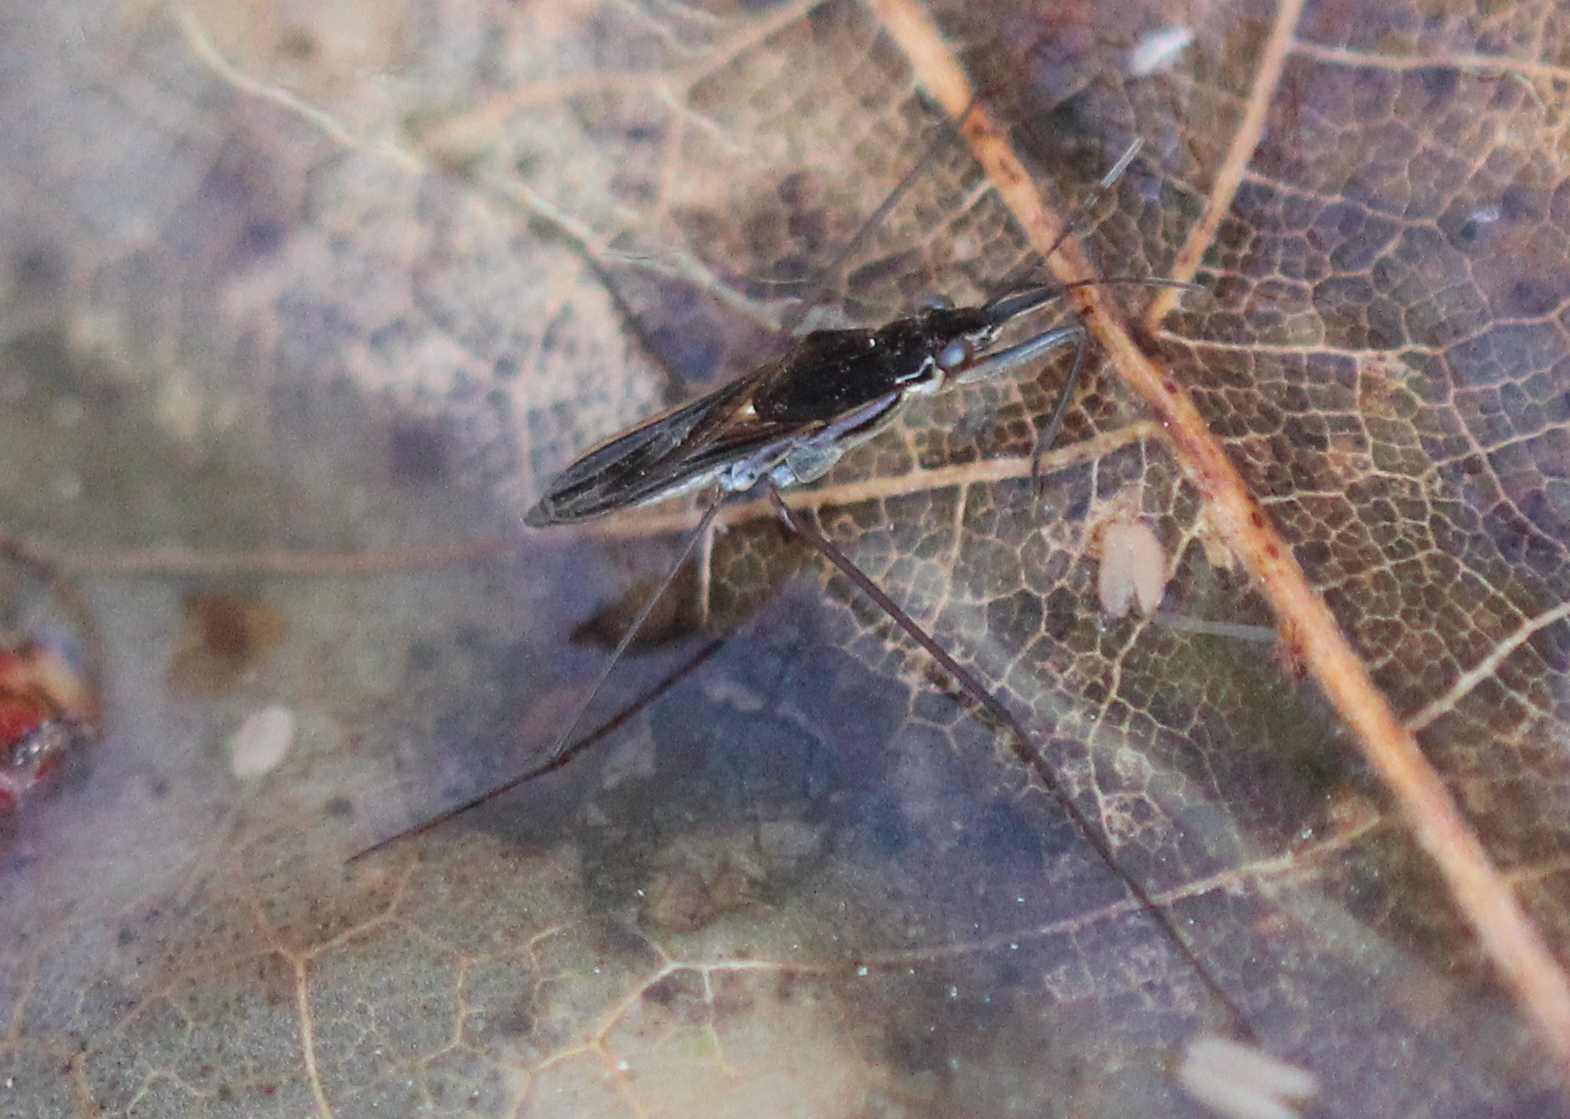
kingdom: Animalia
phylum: Arthropoda
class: Insecta
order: Hemiptera
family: Gerridae
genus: Gerris
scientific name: Gerris
